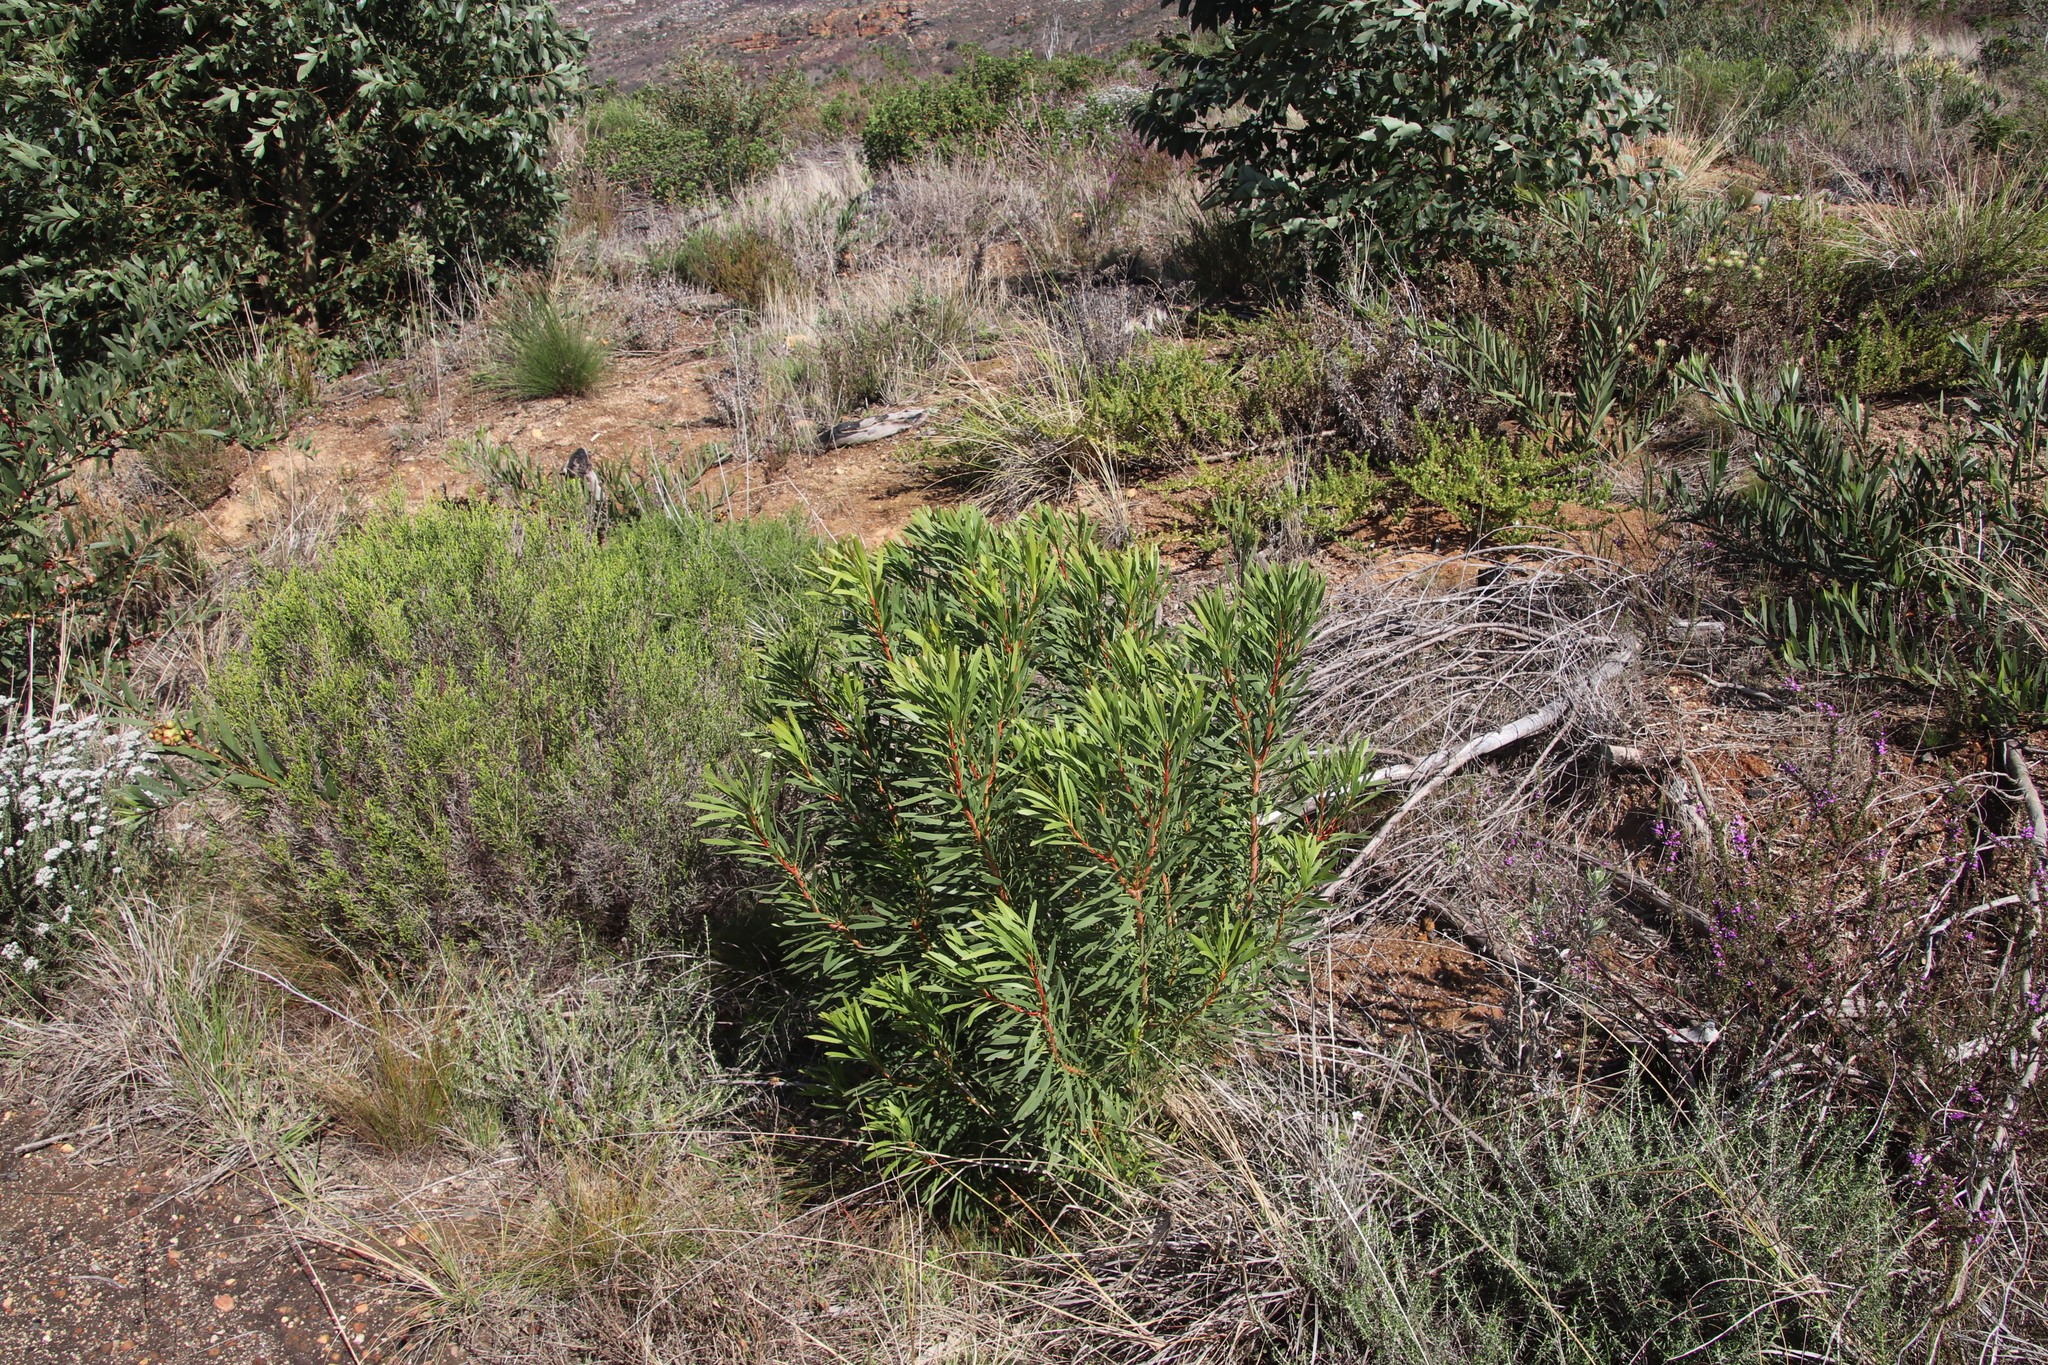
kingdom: Plantae
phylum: Tracheophyta
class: Magnoliopsida
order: Proteales
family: Proteaceae
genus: Protea
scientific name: Protea repens
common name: Sugarbush
